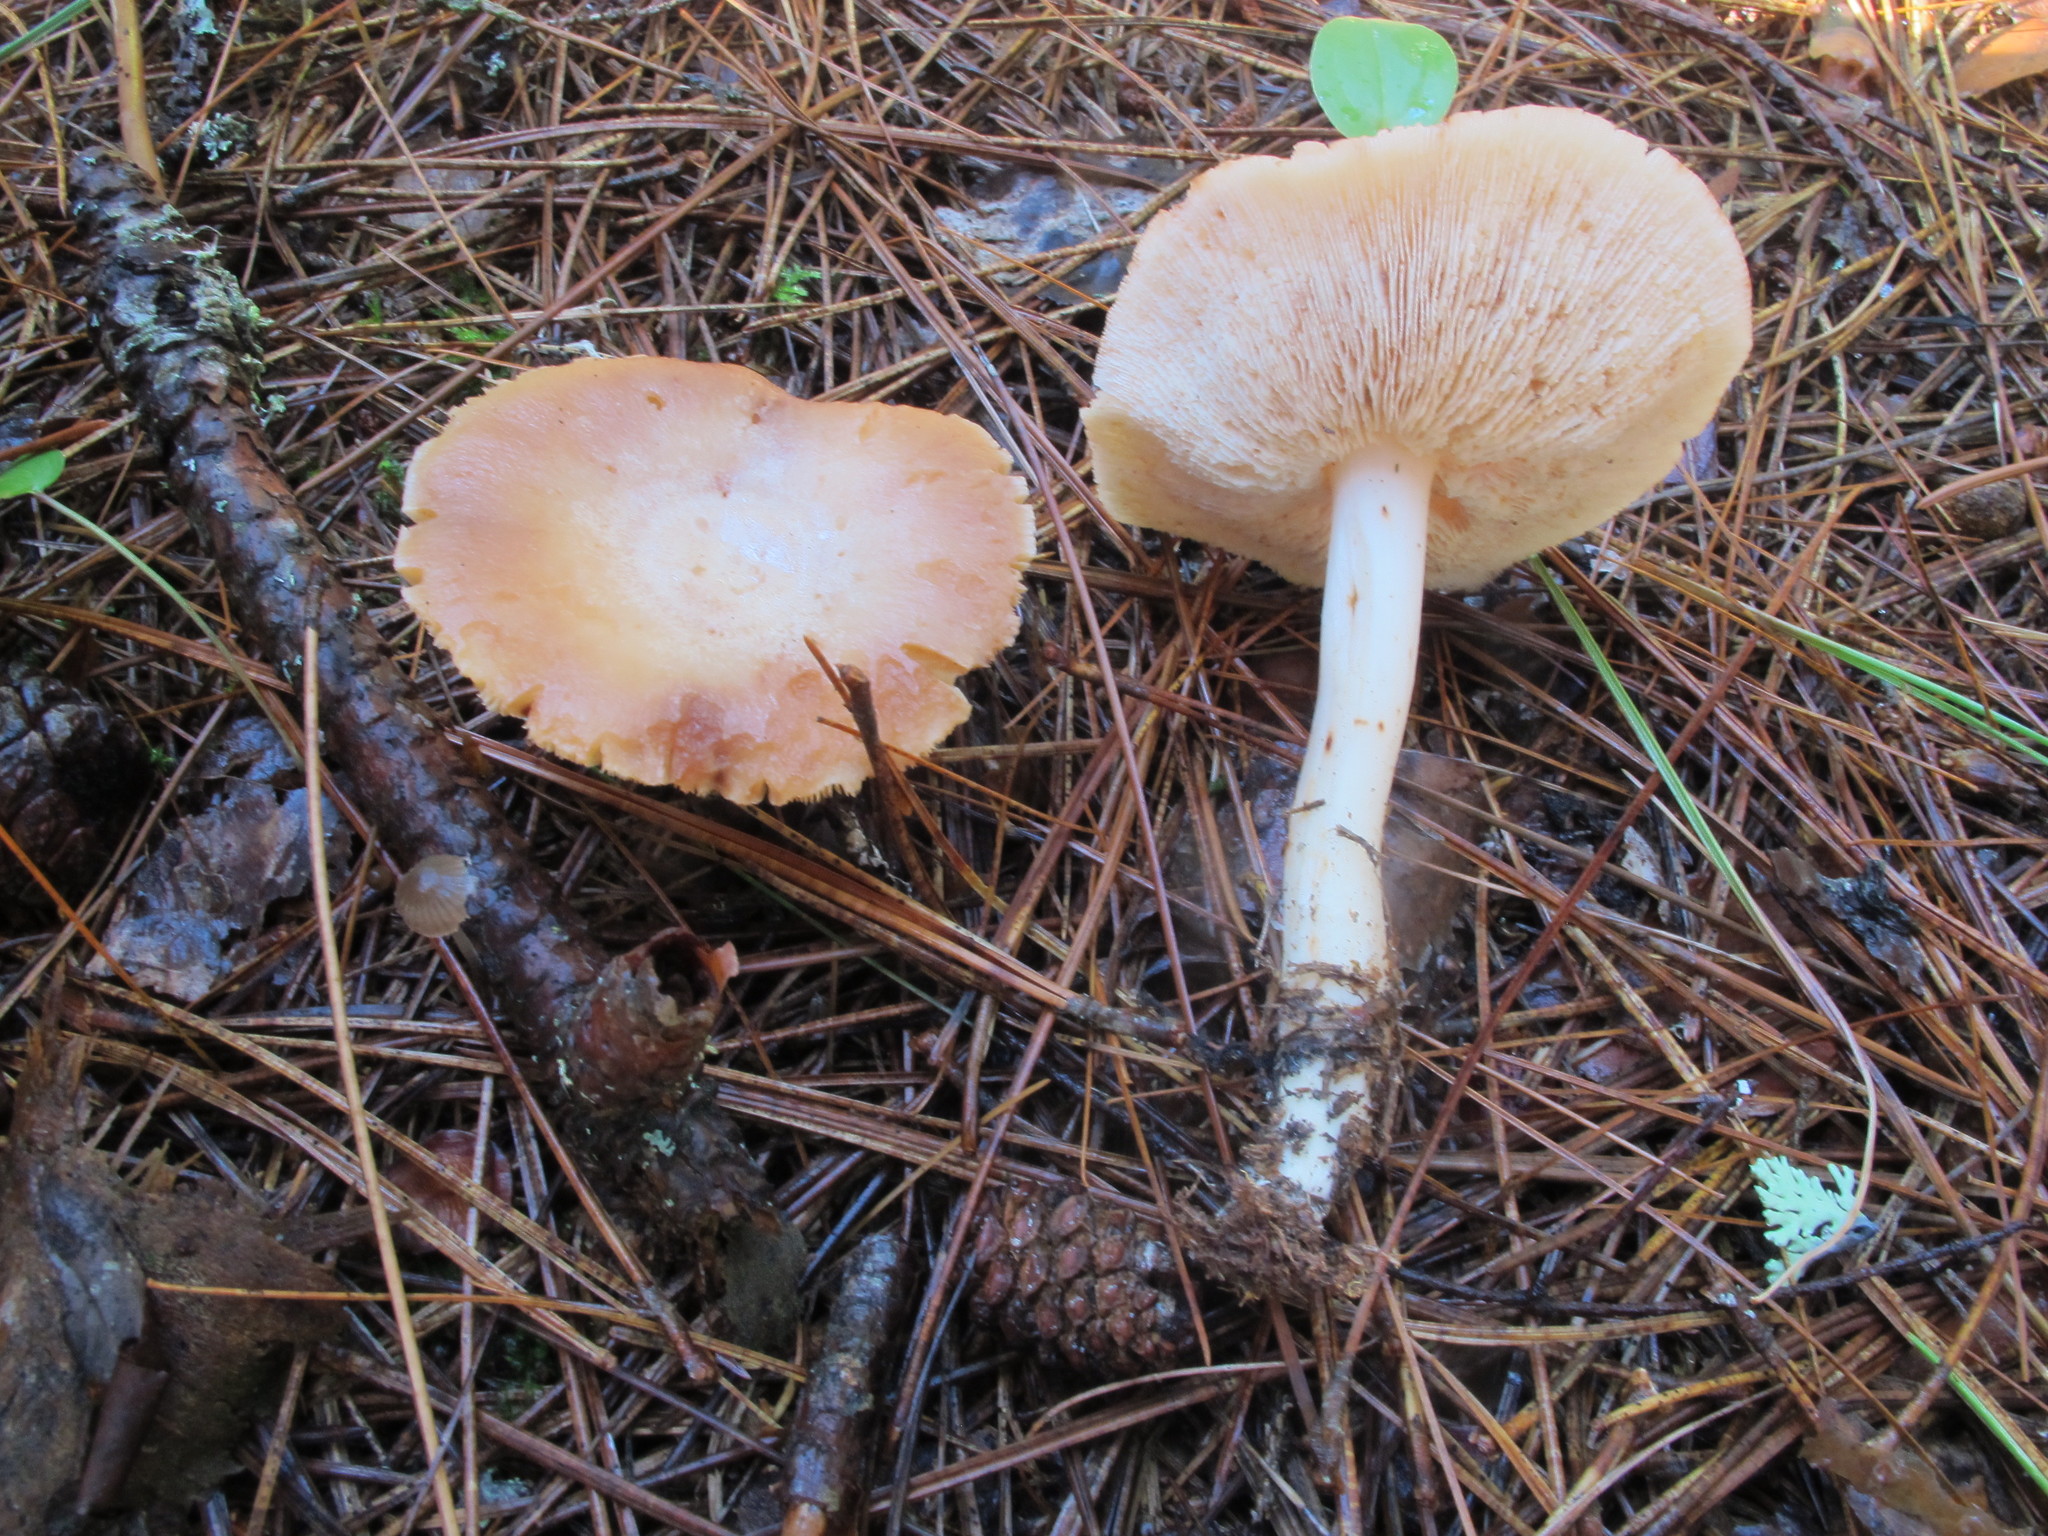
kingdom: Fungi
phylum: Basidiomycota
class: Agaricomycetes
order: Agaricales
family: Omphalotaceae
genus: Rhodocollybia
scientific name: Rhodocollybia maculata
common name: Spotted tough-shank
